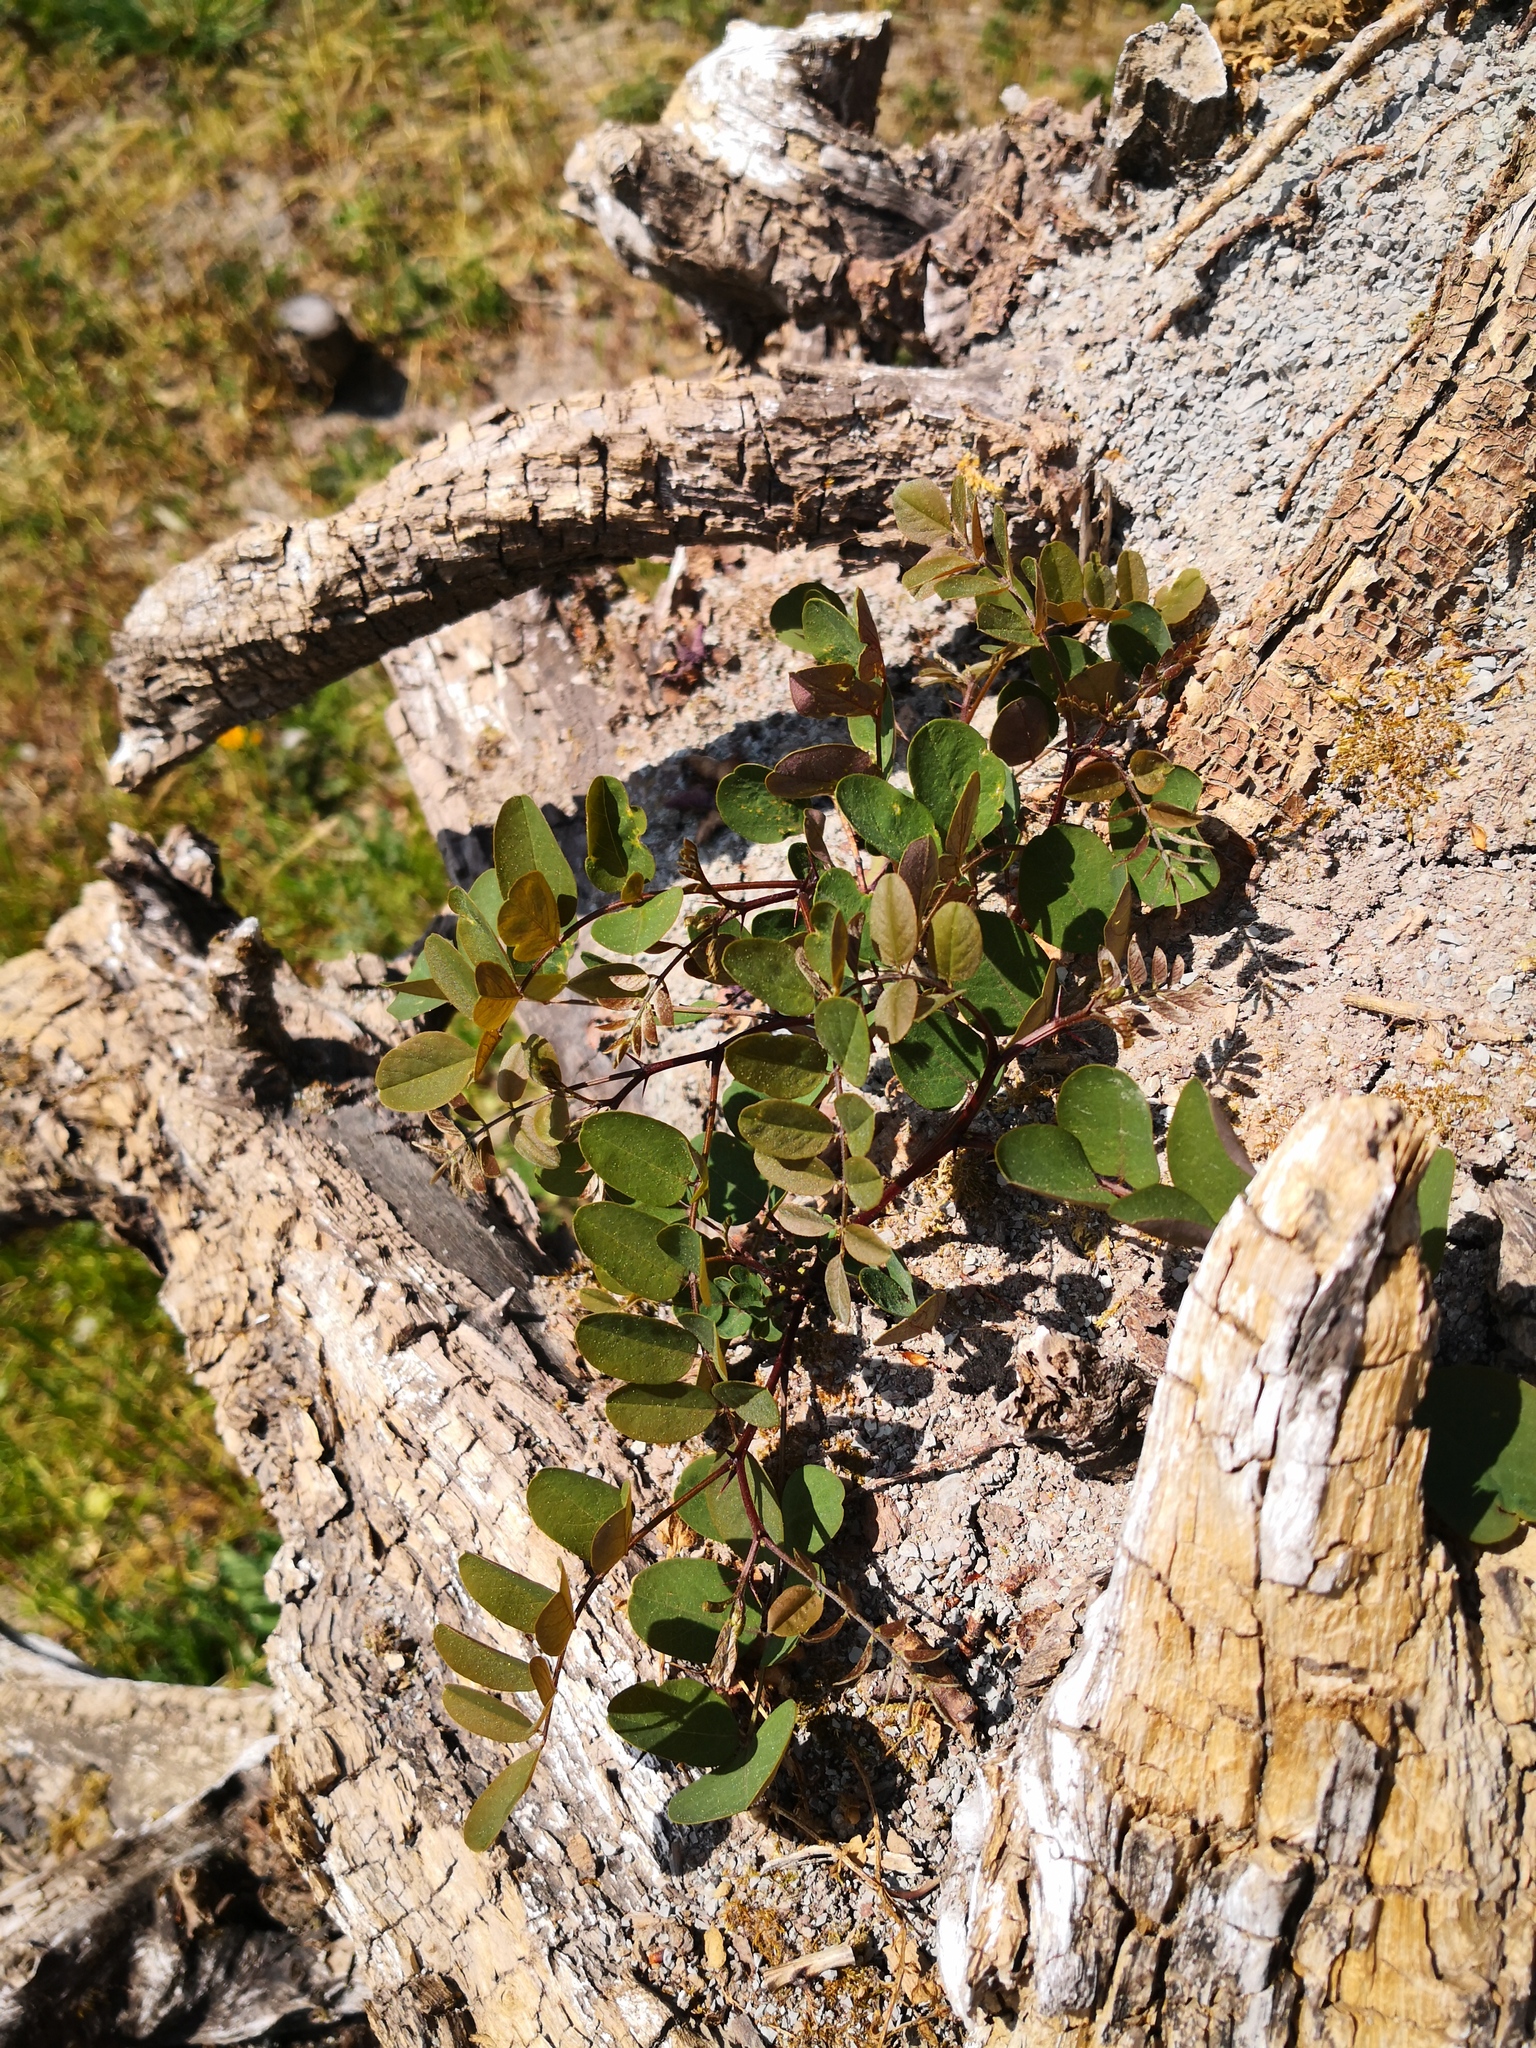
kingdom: Plantae
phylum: Tracheophyta
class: Magnoliopsida
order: Fabales
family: Fabaceae
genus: Robinia
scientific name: Robinia pseudoacacia
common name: Black locust
